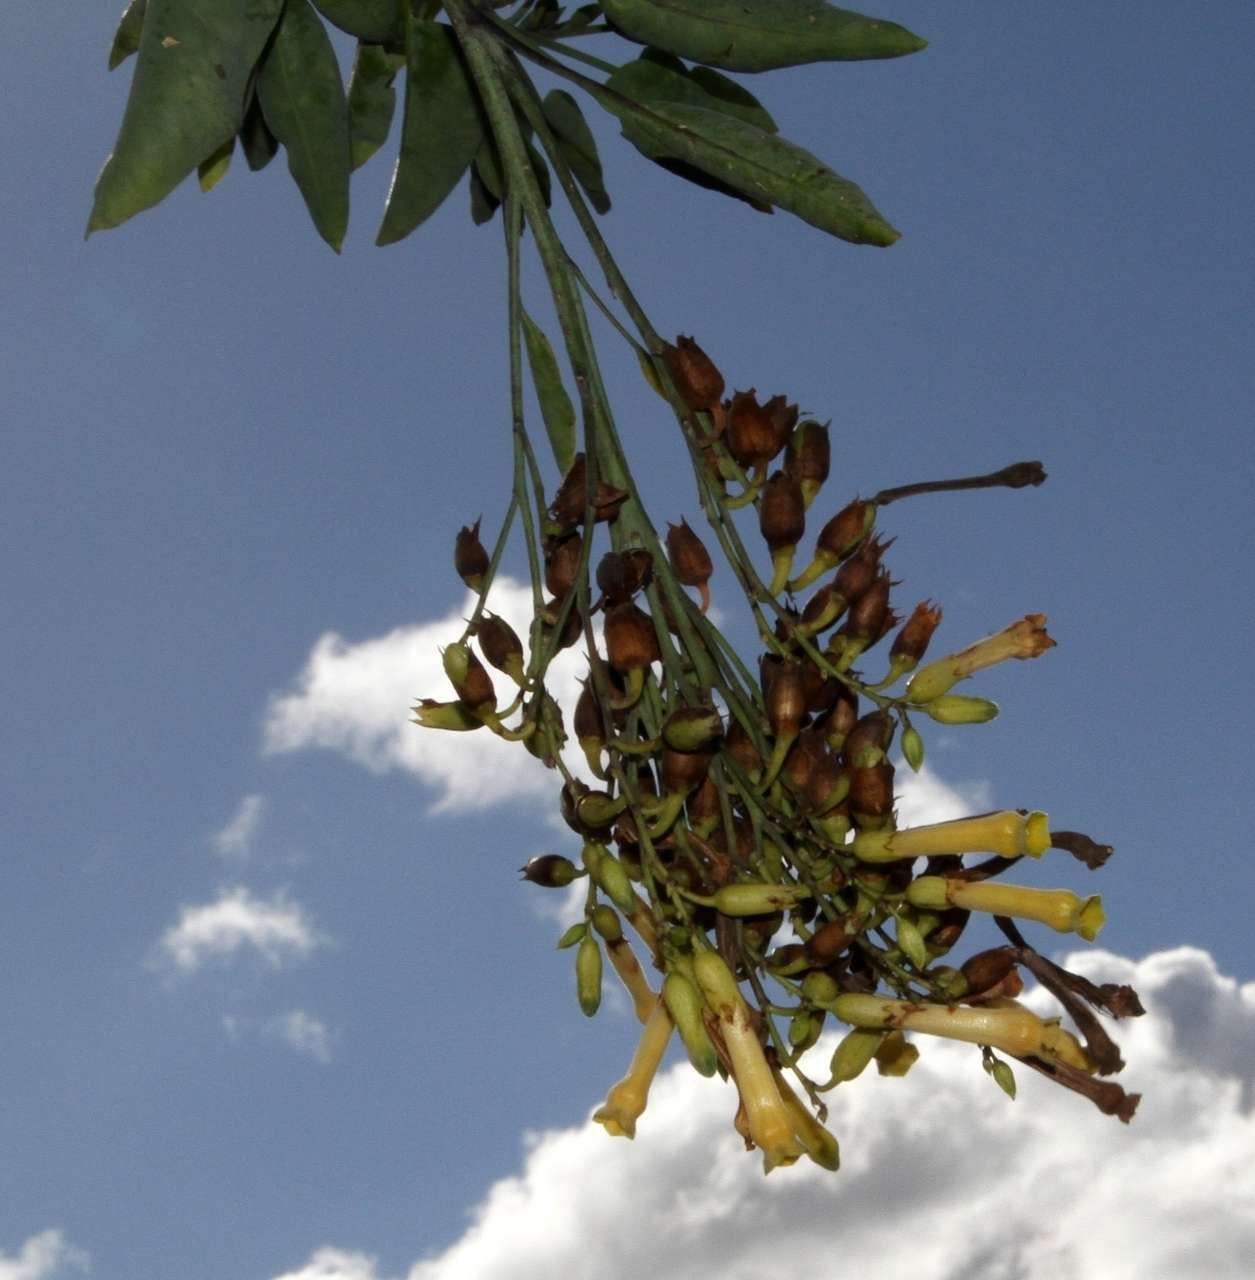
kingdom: Plantae
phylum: Tracheophyta
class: Magnoliopsida
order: Solanales
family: Solanaceae
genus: Nicotiana
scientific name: Nicotiana glauca
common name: Tree tobacco
